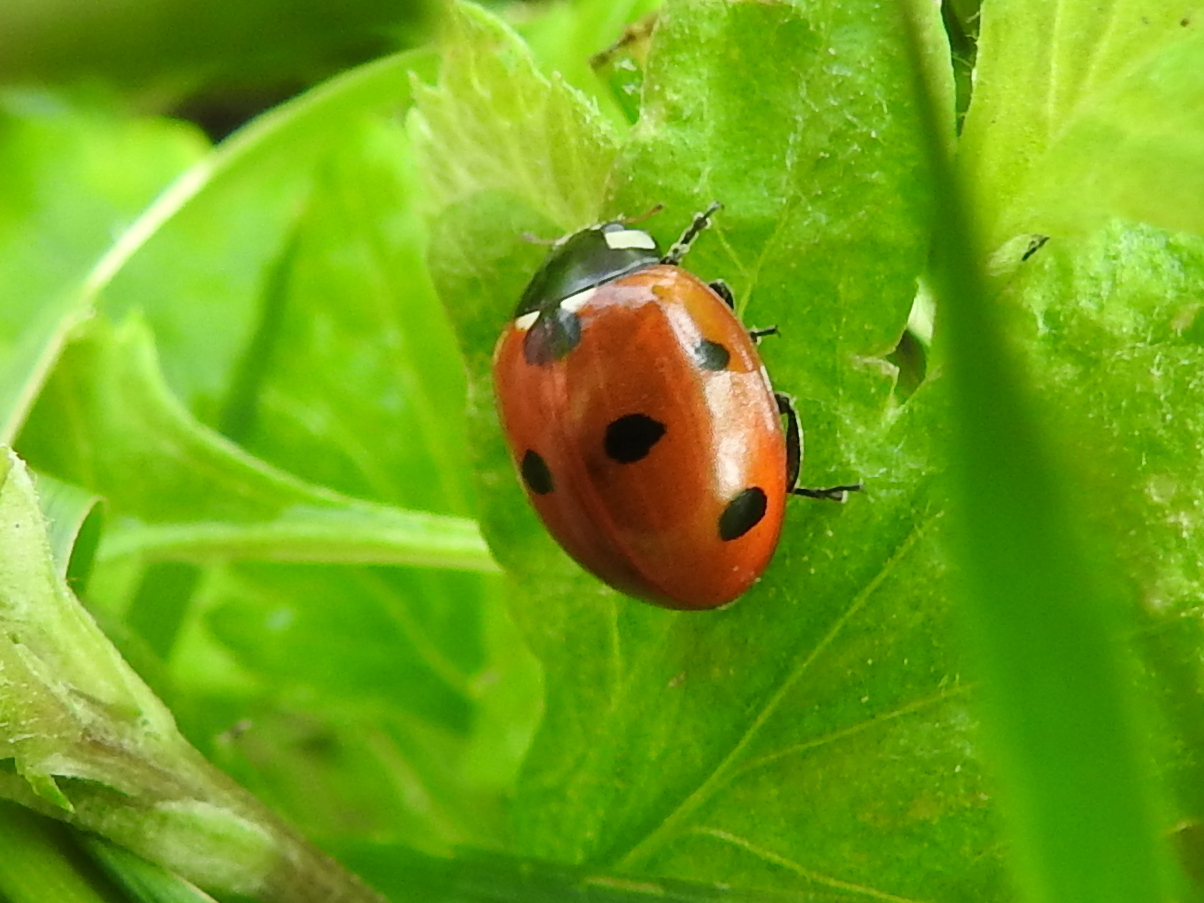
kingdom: Animalia
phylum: Arthropoda
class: Insecta
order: Coleoptera
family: Coccinellidae
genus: Coccinella
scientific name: Coccinella septempunctata
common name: Sevenspotted lady beetle
